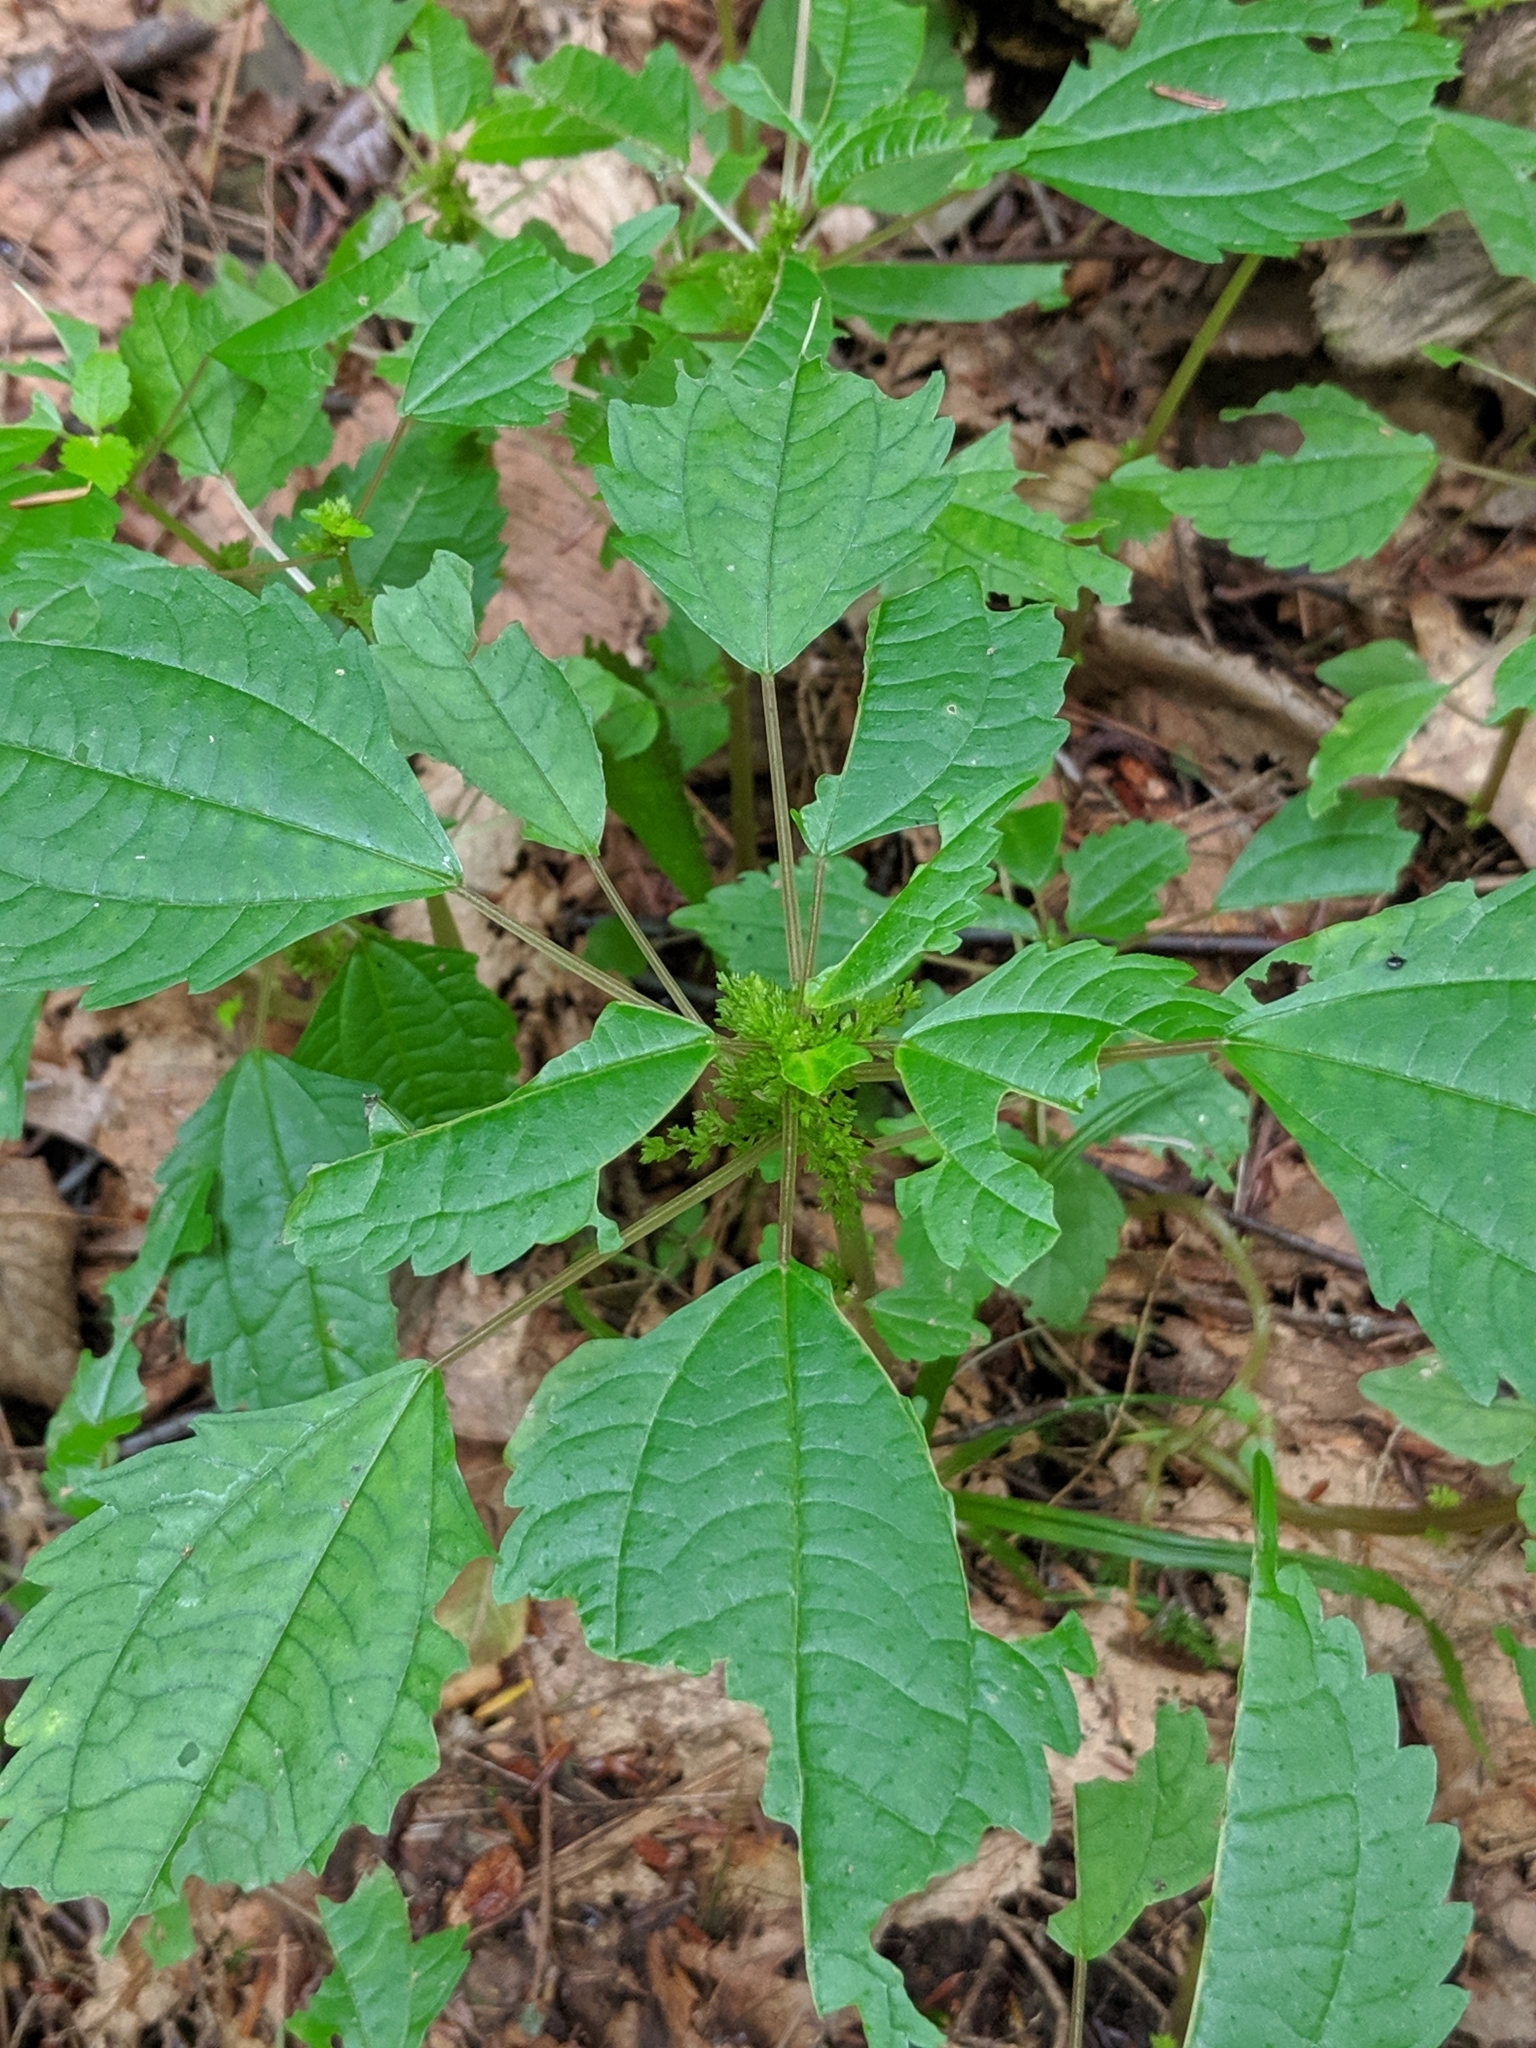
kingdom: Plantae
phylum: Tracheophyta
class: Magnoliopsida
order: Rosales
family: Urticaceae
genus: Pilea
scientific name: Pilea pumila
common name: Clearweed
